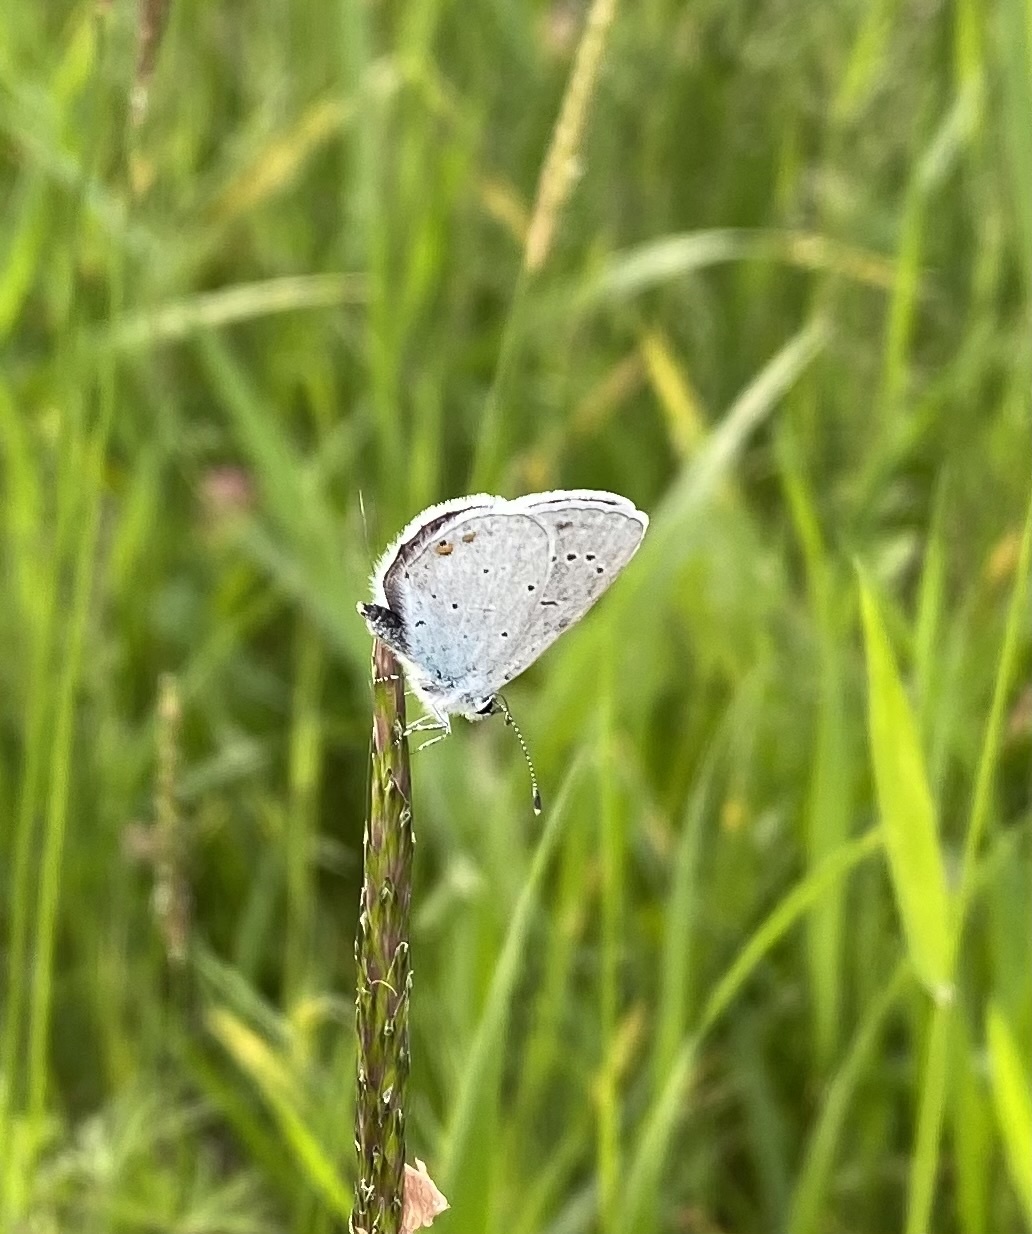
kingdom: Animalia
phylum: Arthropoda
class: Insecta
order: Lepidoptera
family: Lycaenidae
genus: Elkalyce
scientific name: Elkalyce alcetas
